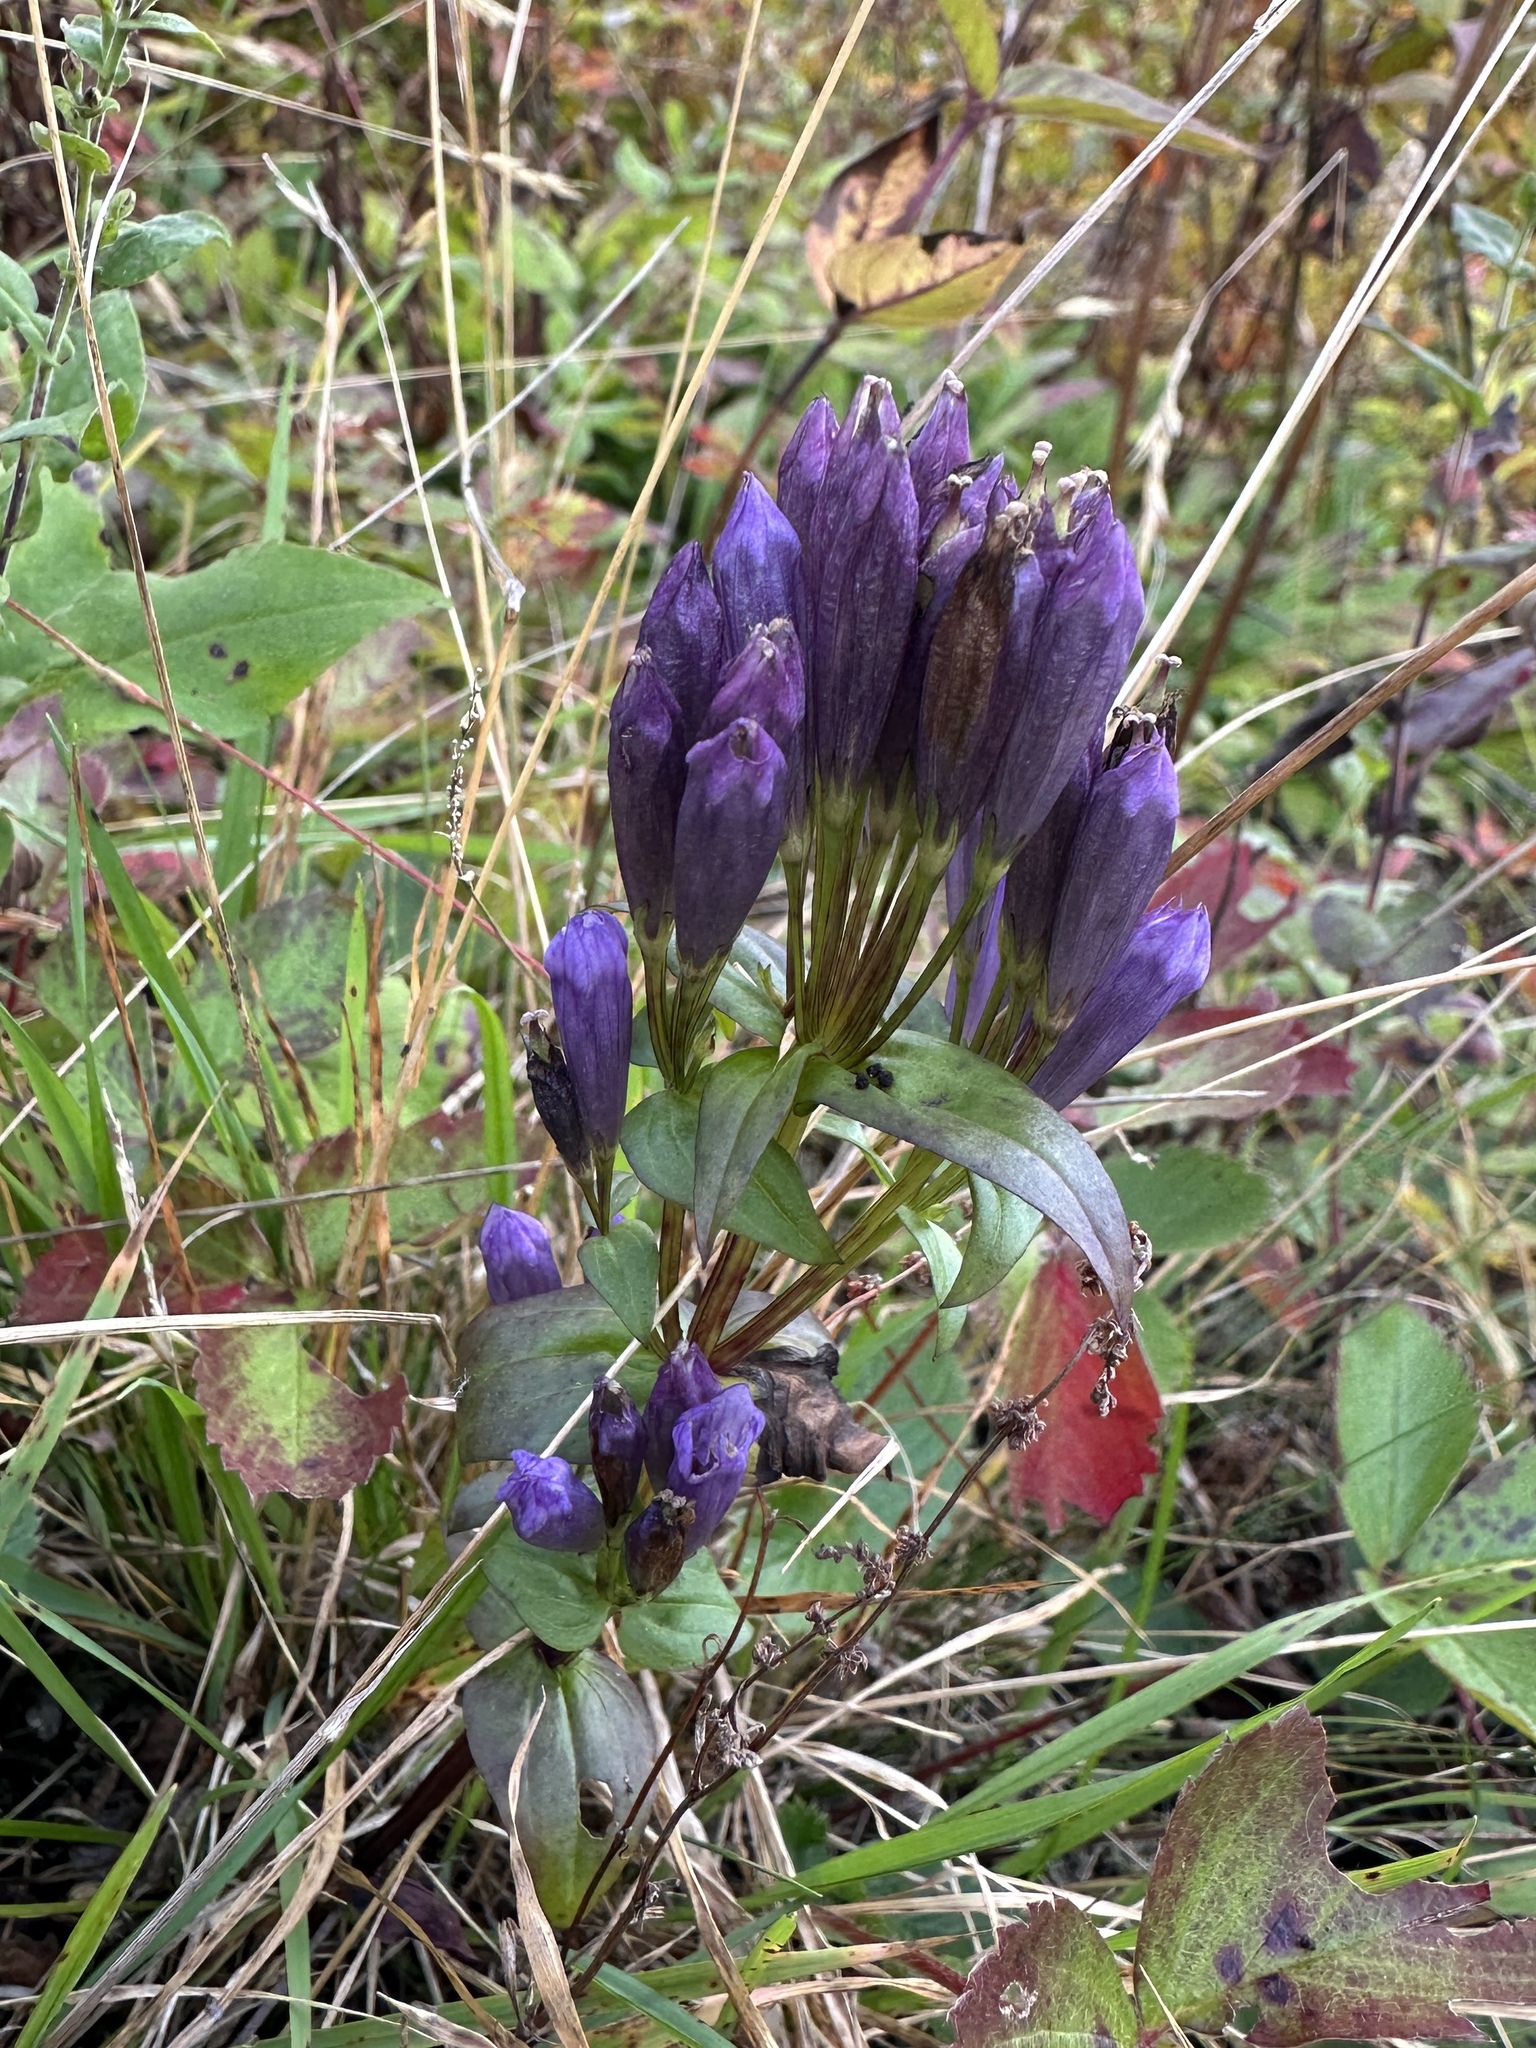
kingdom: Plantae
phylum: Tracheophyta
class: Magnoliopsida
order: Gentianales
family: Gentianaceae
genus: Gentianella
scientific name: Gentianella quinquefolia
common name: Agueweed
